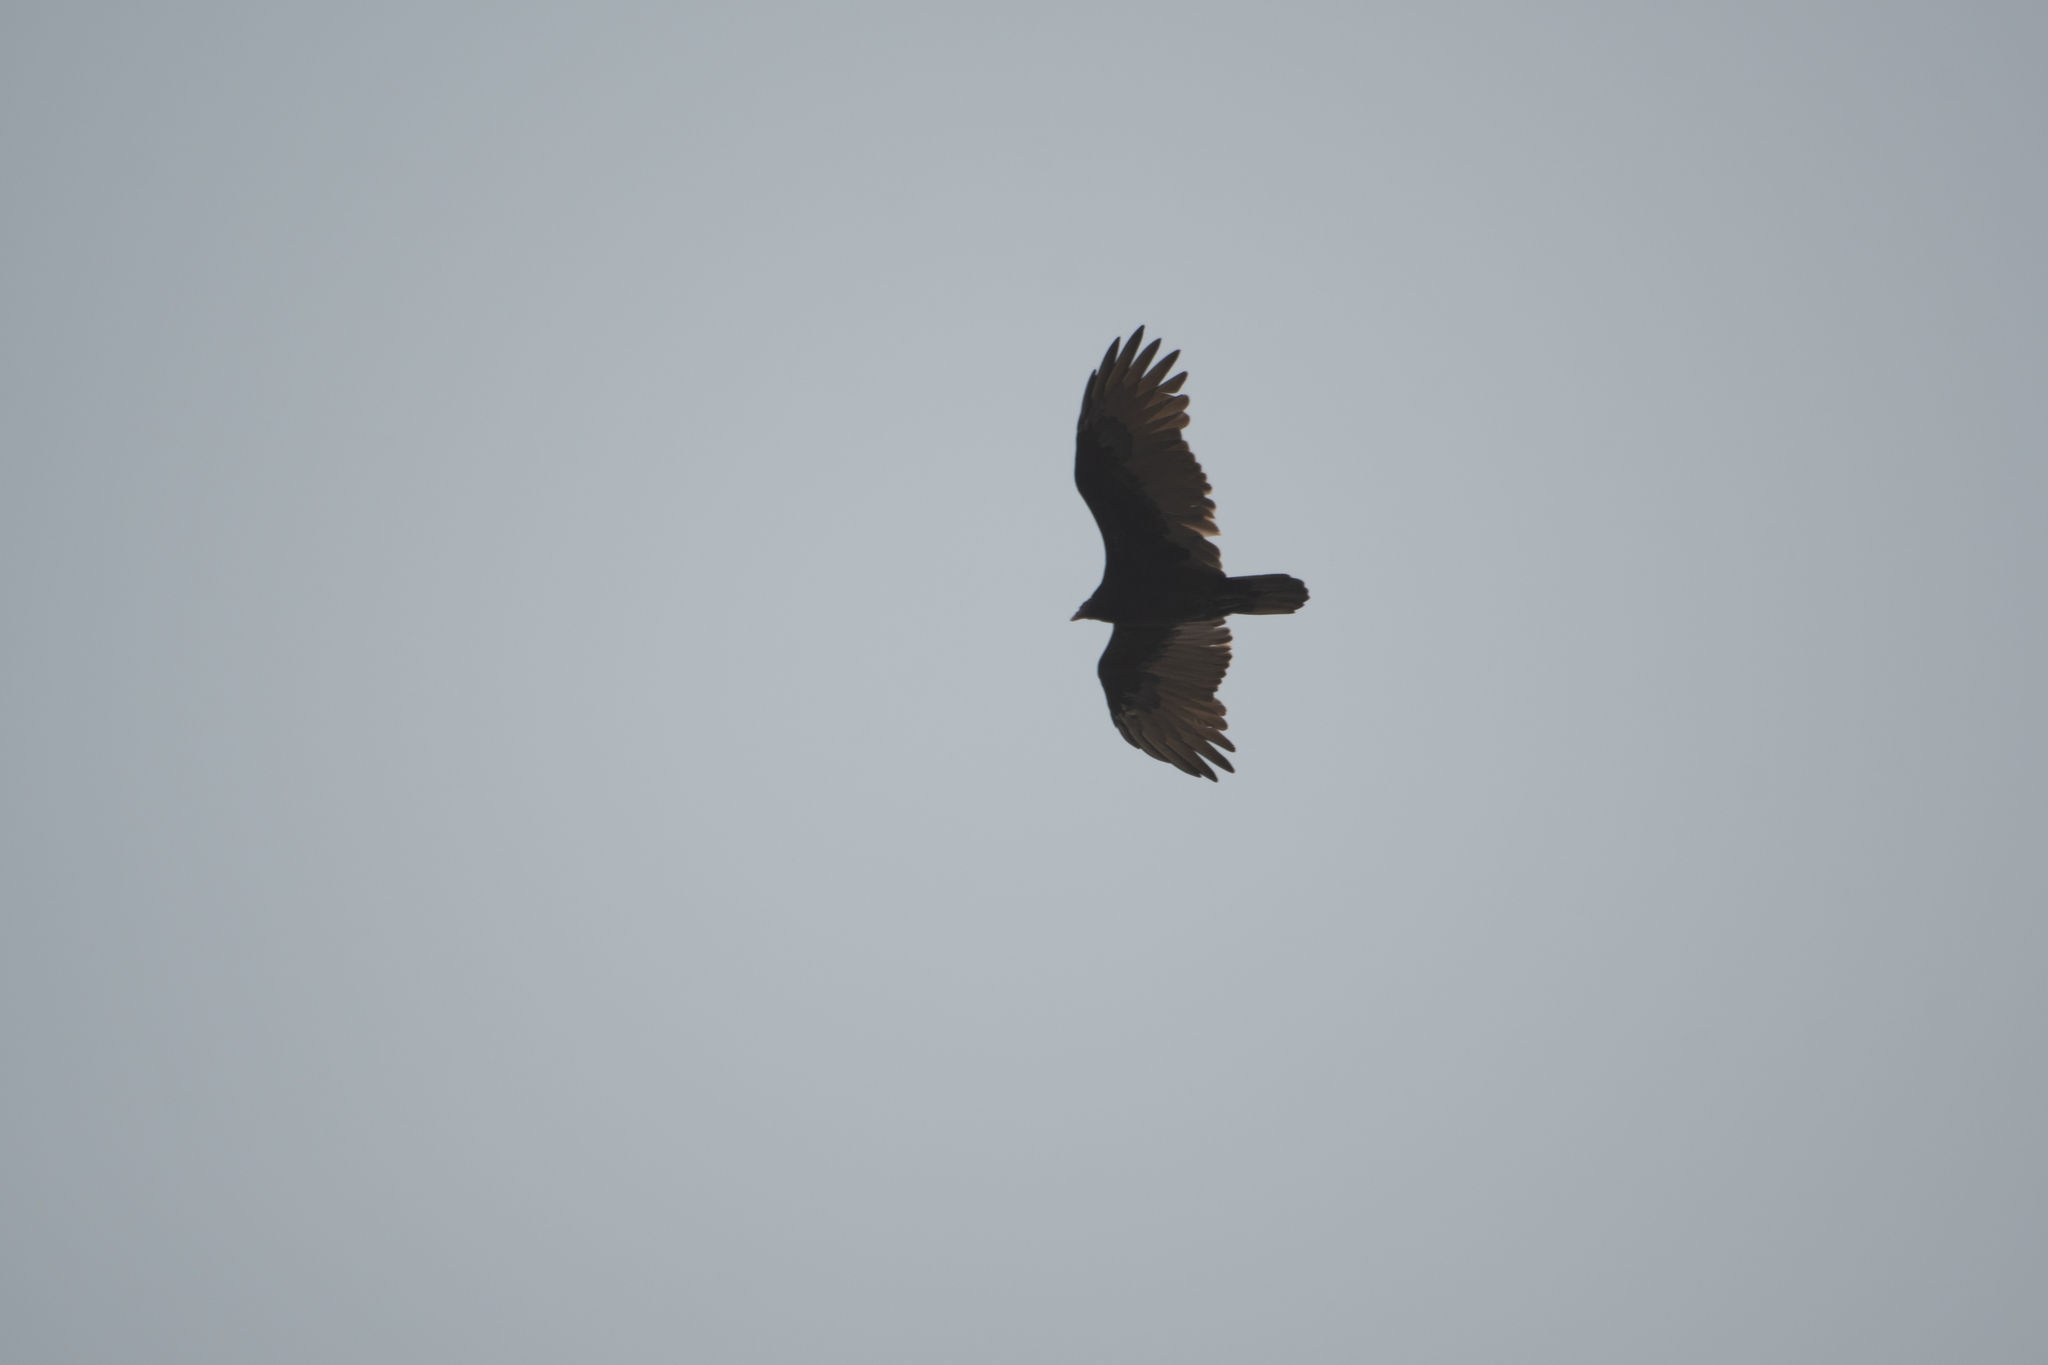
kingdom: Animalia
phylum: Chordata
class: Aves
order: Accipitriformes
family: Cathartidae
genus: Cathartes
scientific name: Cathartes aura
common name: Turkey vulture
